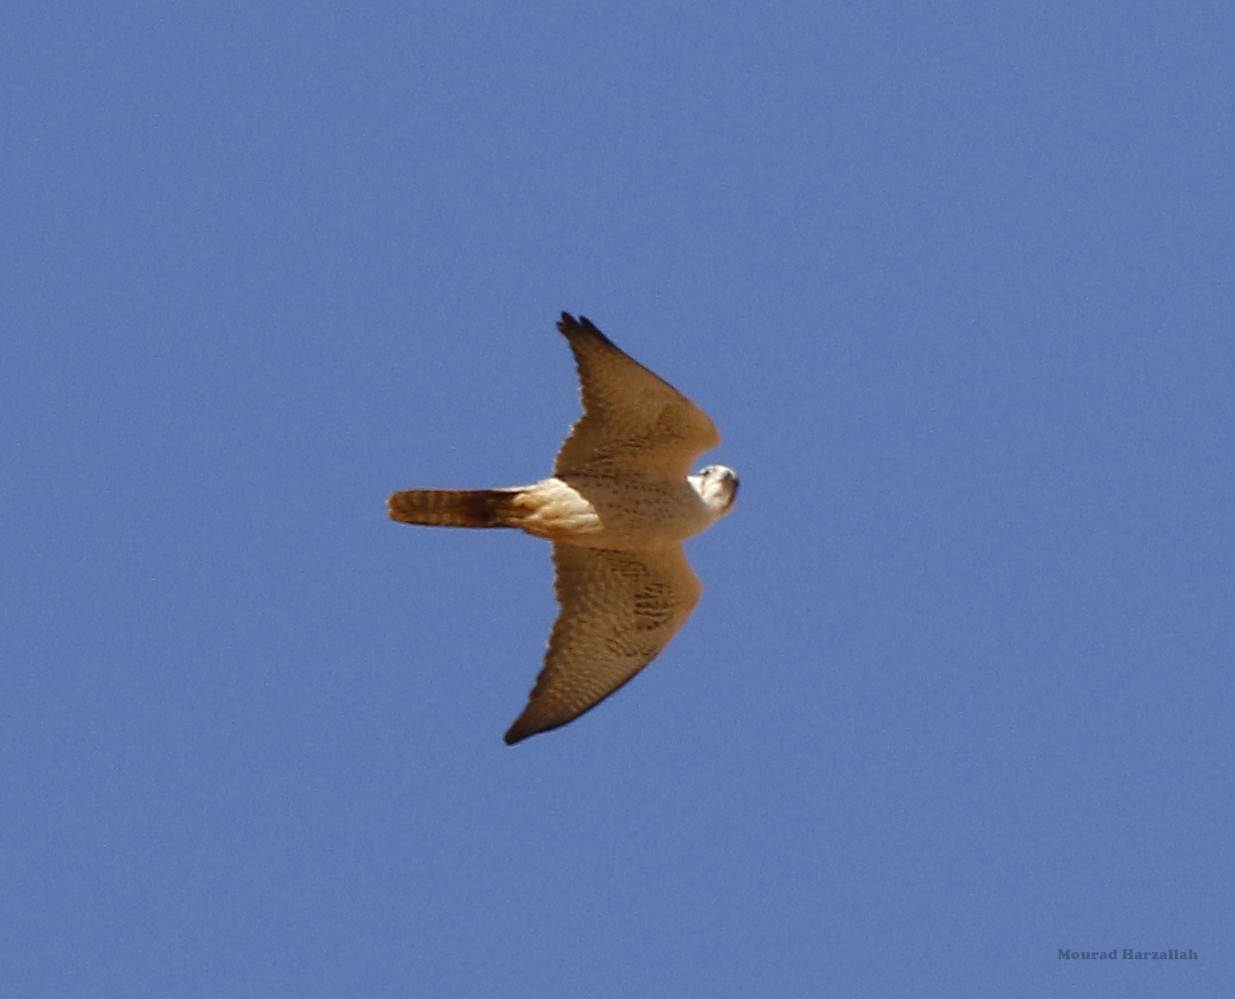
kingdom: Animalia
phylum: Chordata
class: Aves
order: Falconiformes
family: Falconidae
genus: Falco
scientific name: Falco biarmicus
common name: Lanner falcon
